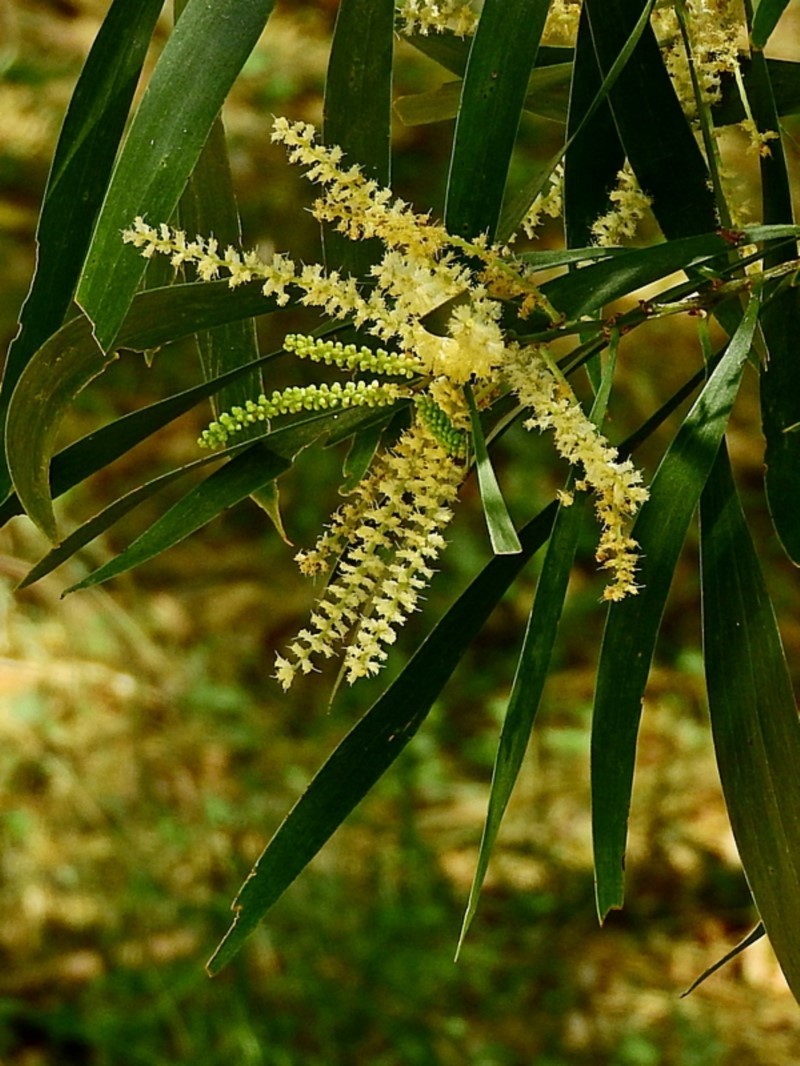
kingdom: Plantae
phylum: Tracheophyta
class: Magnoliopsida
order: Fabales
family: Fabaceae
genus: Acacia
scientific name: Acacia maidenii
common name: Maiden's wattle
